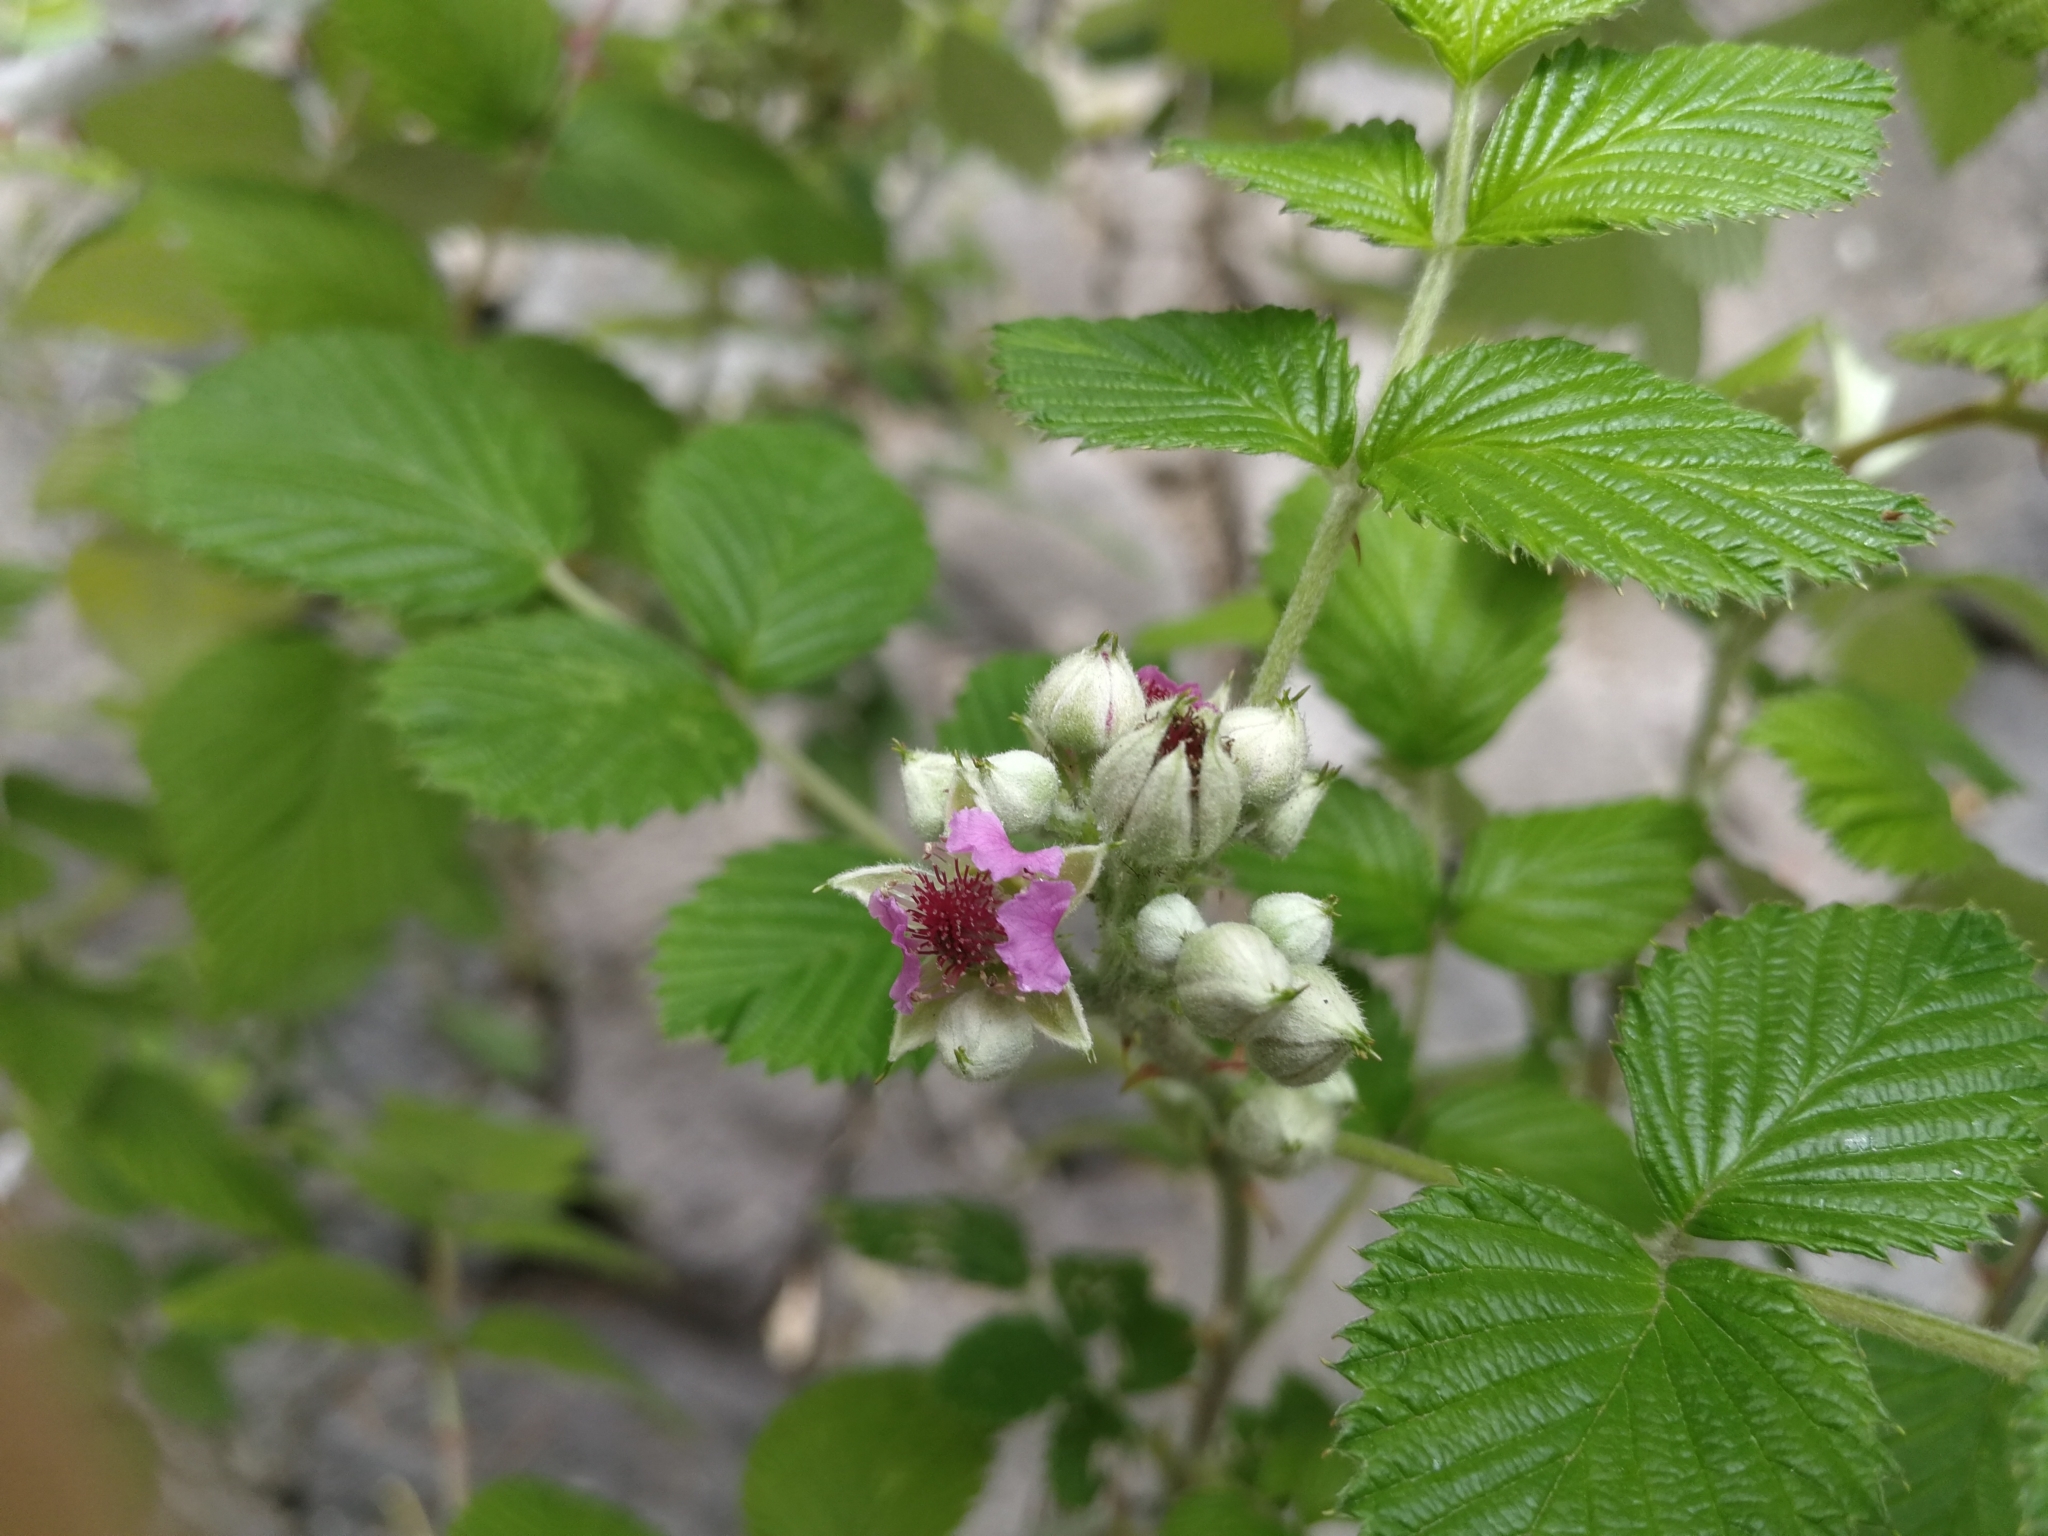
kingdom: Plantae
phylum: Tracheophyta
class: Magnoliopsida
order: Rosales
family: Rosaceae
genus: Rubus
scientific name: Rubus niveus
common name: Snowpeaks raspberry
